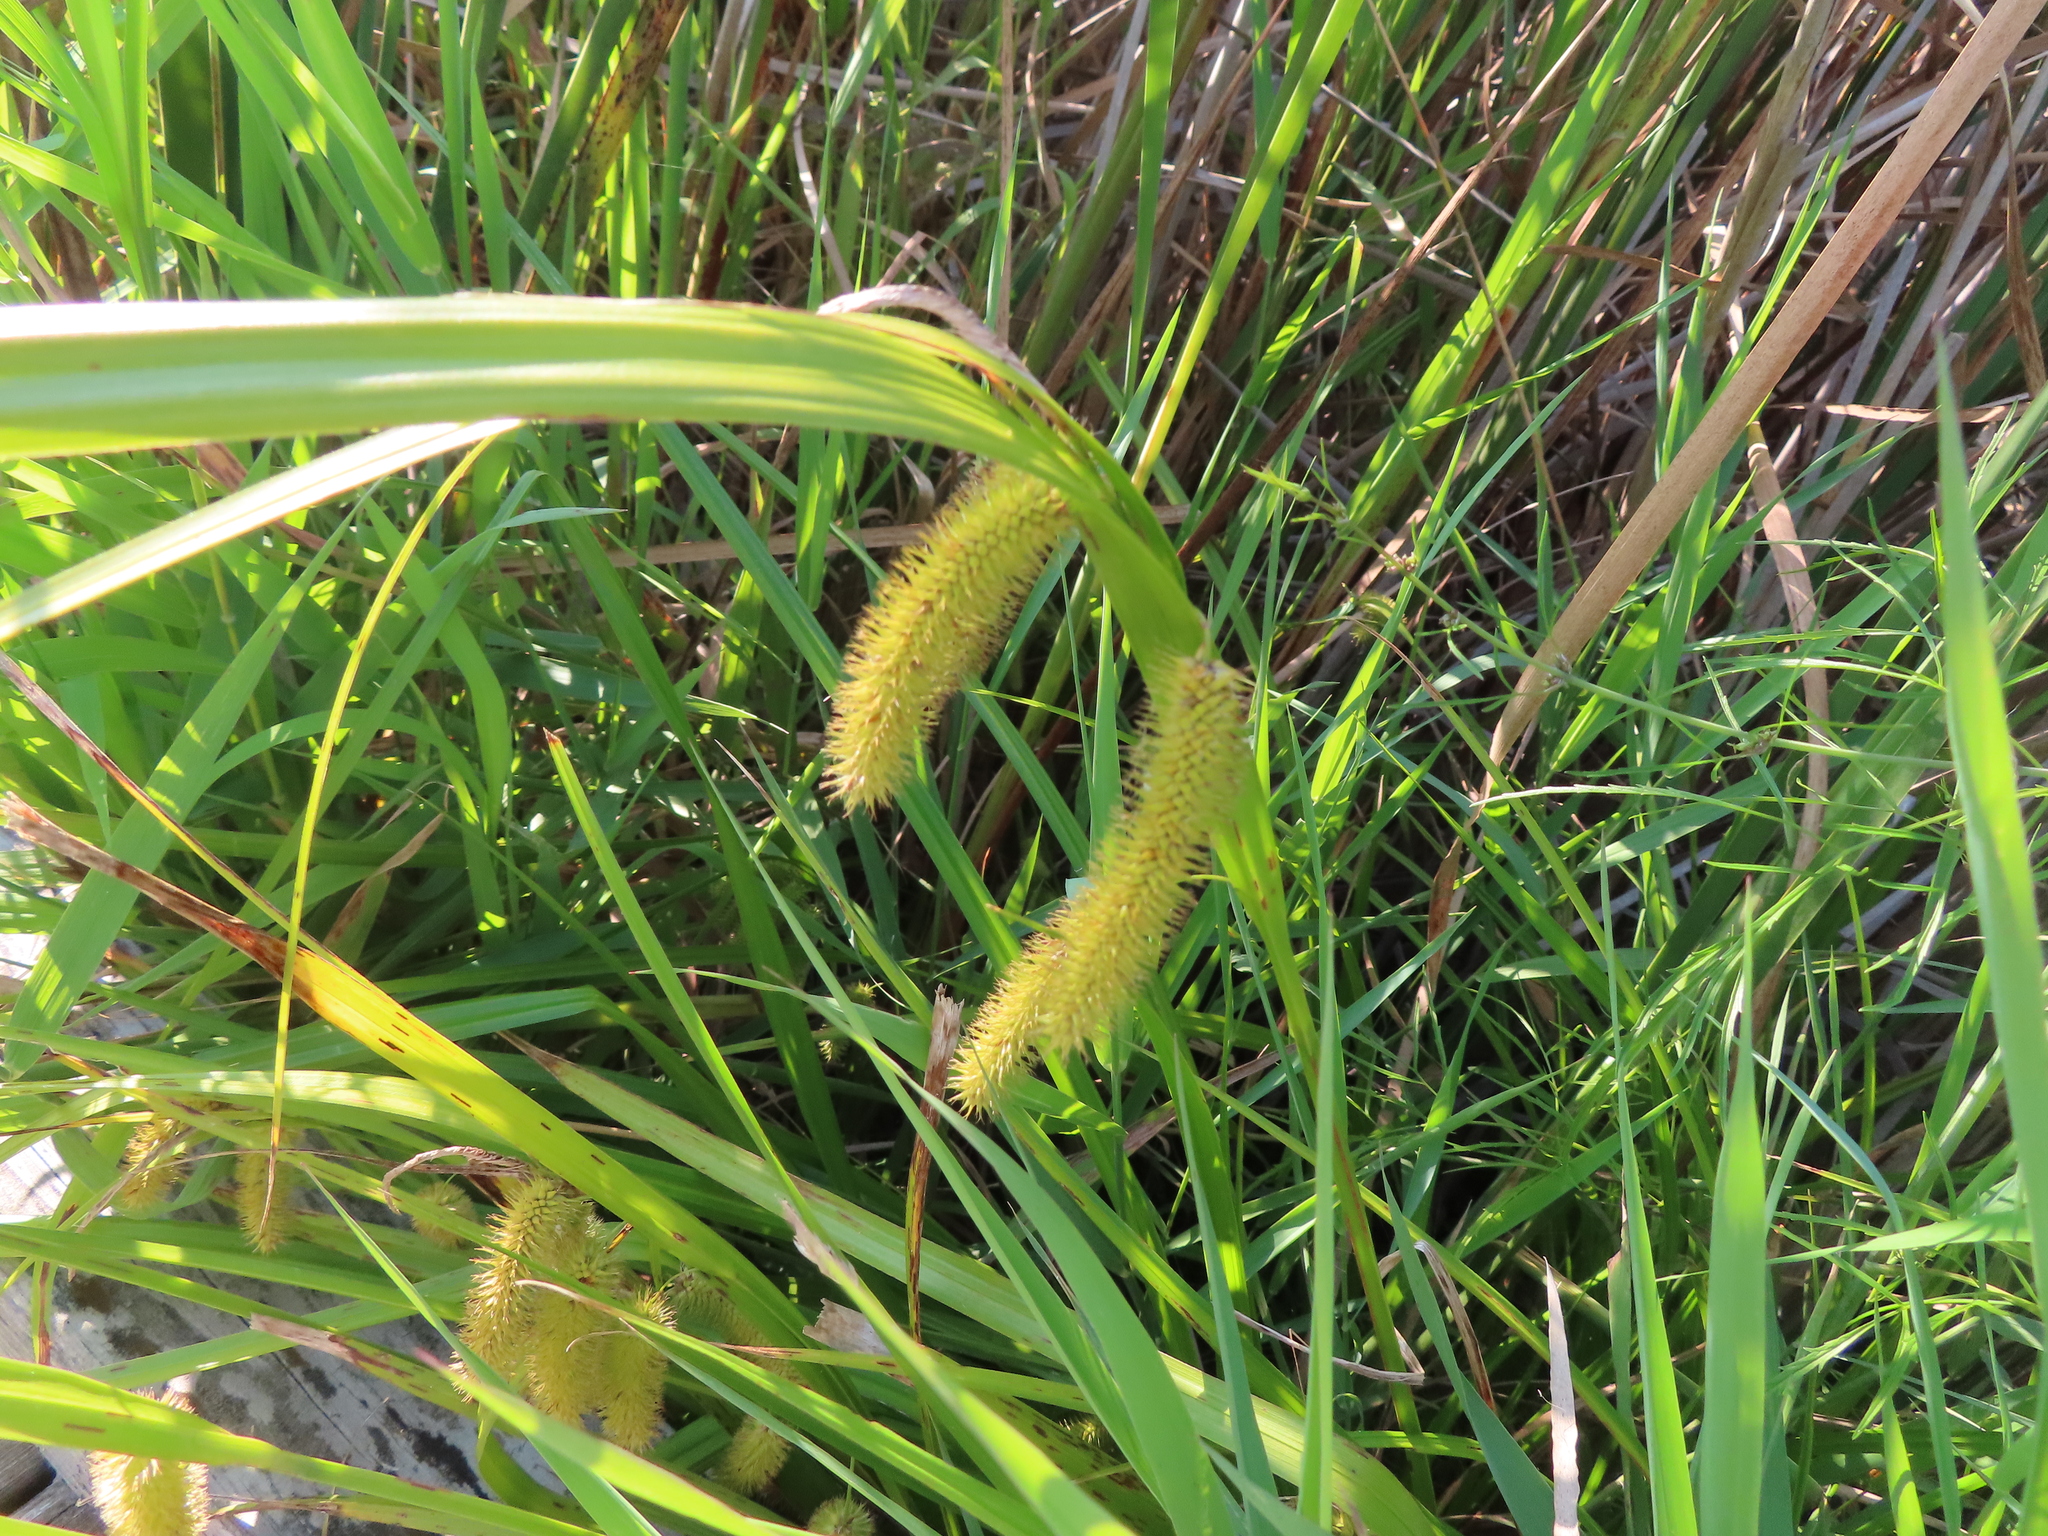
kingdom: Plantae
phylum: Tracheophyta
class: Liliopsida
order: Poales
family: Cyperaceae
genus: Carex
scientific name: Carex comosa
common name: Bristly sedge
